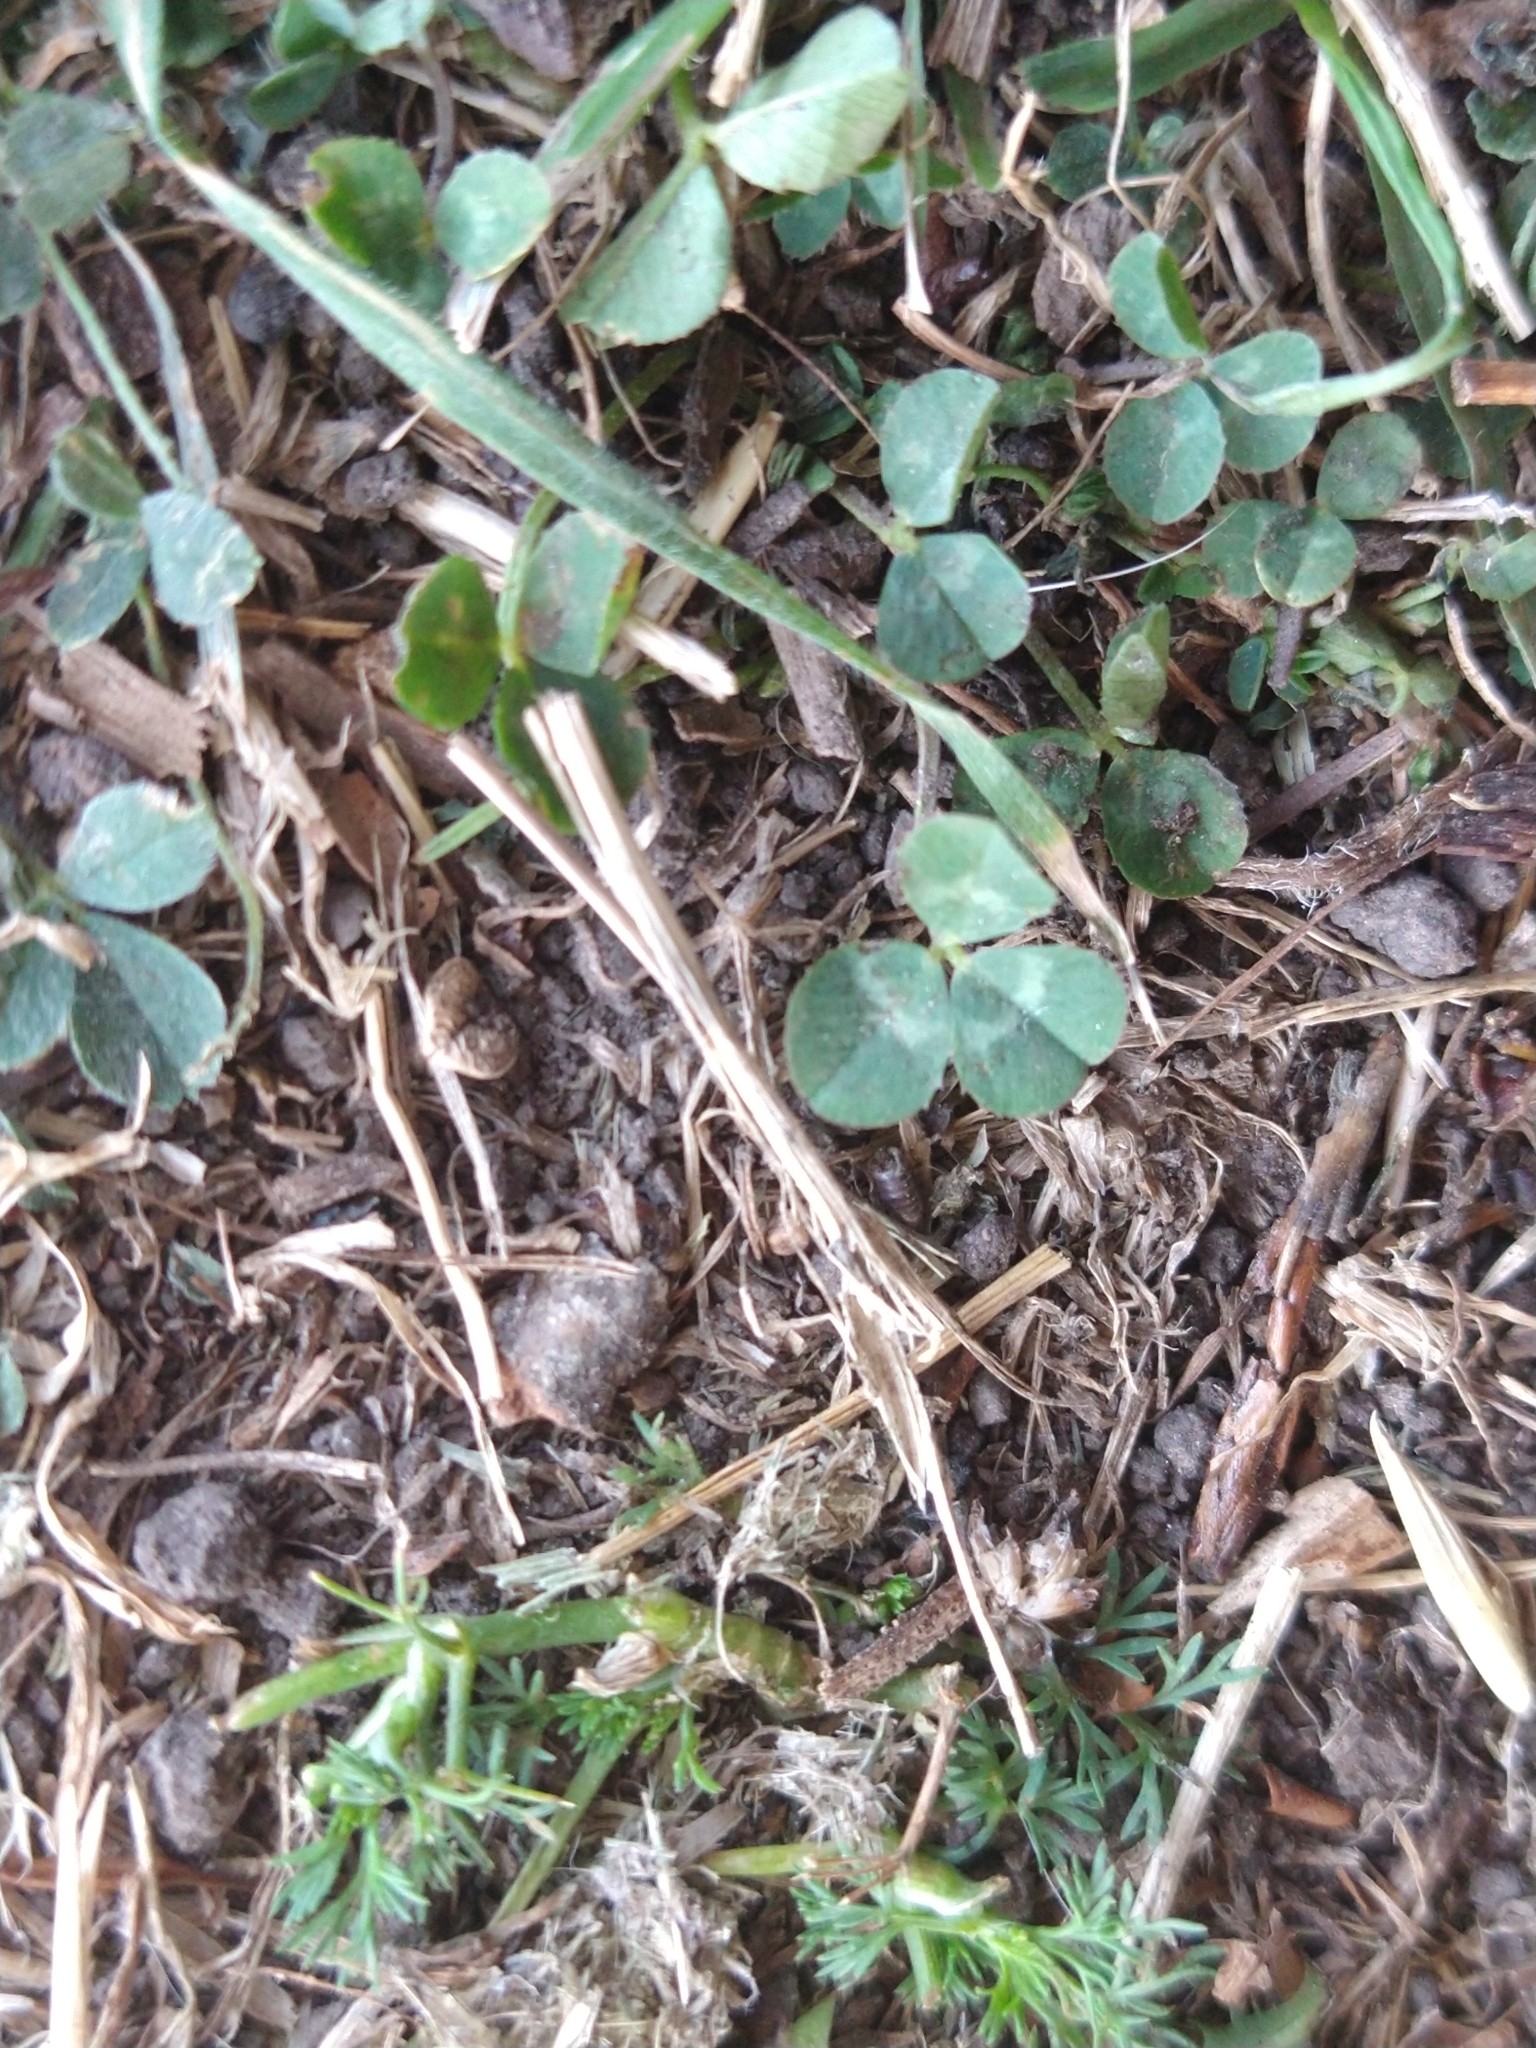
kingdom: Plantae
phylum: Tracheophyta
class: Magnoliopsida
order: Fabales
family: Fabaceae
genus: Trifolium
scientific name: Trifolium repens
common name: White clover
